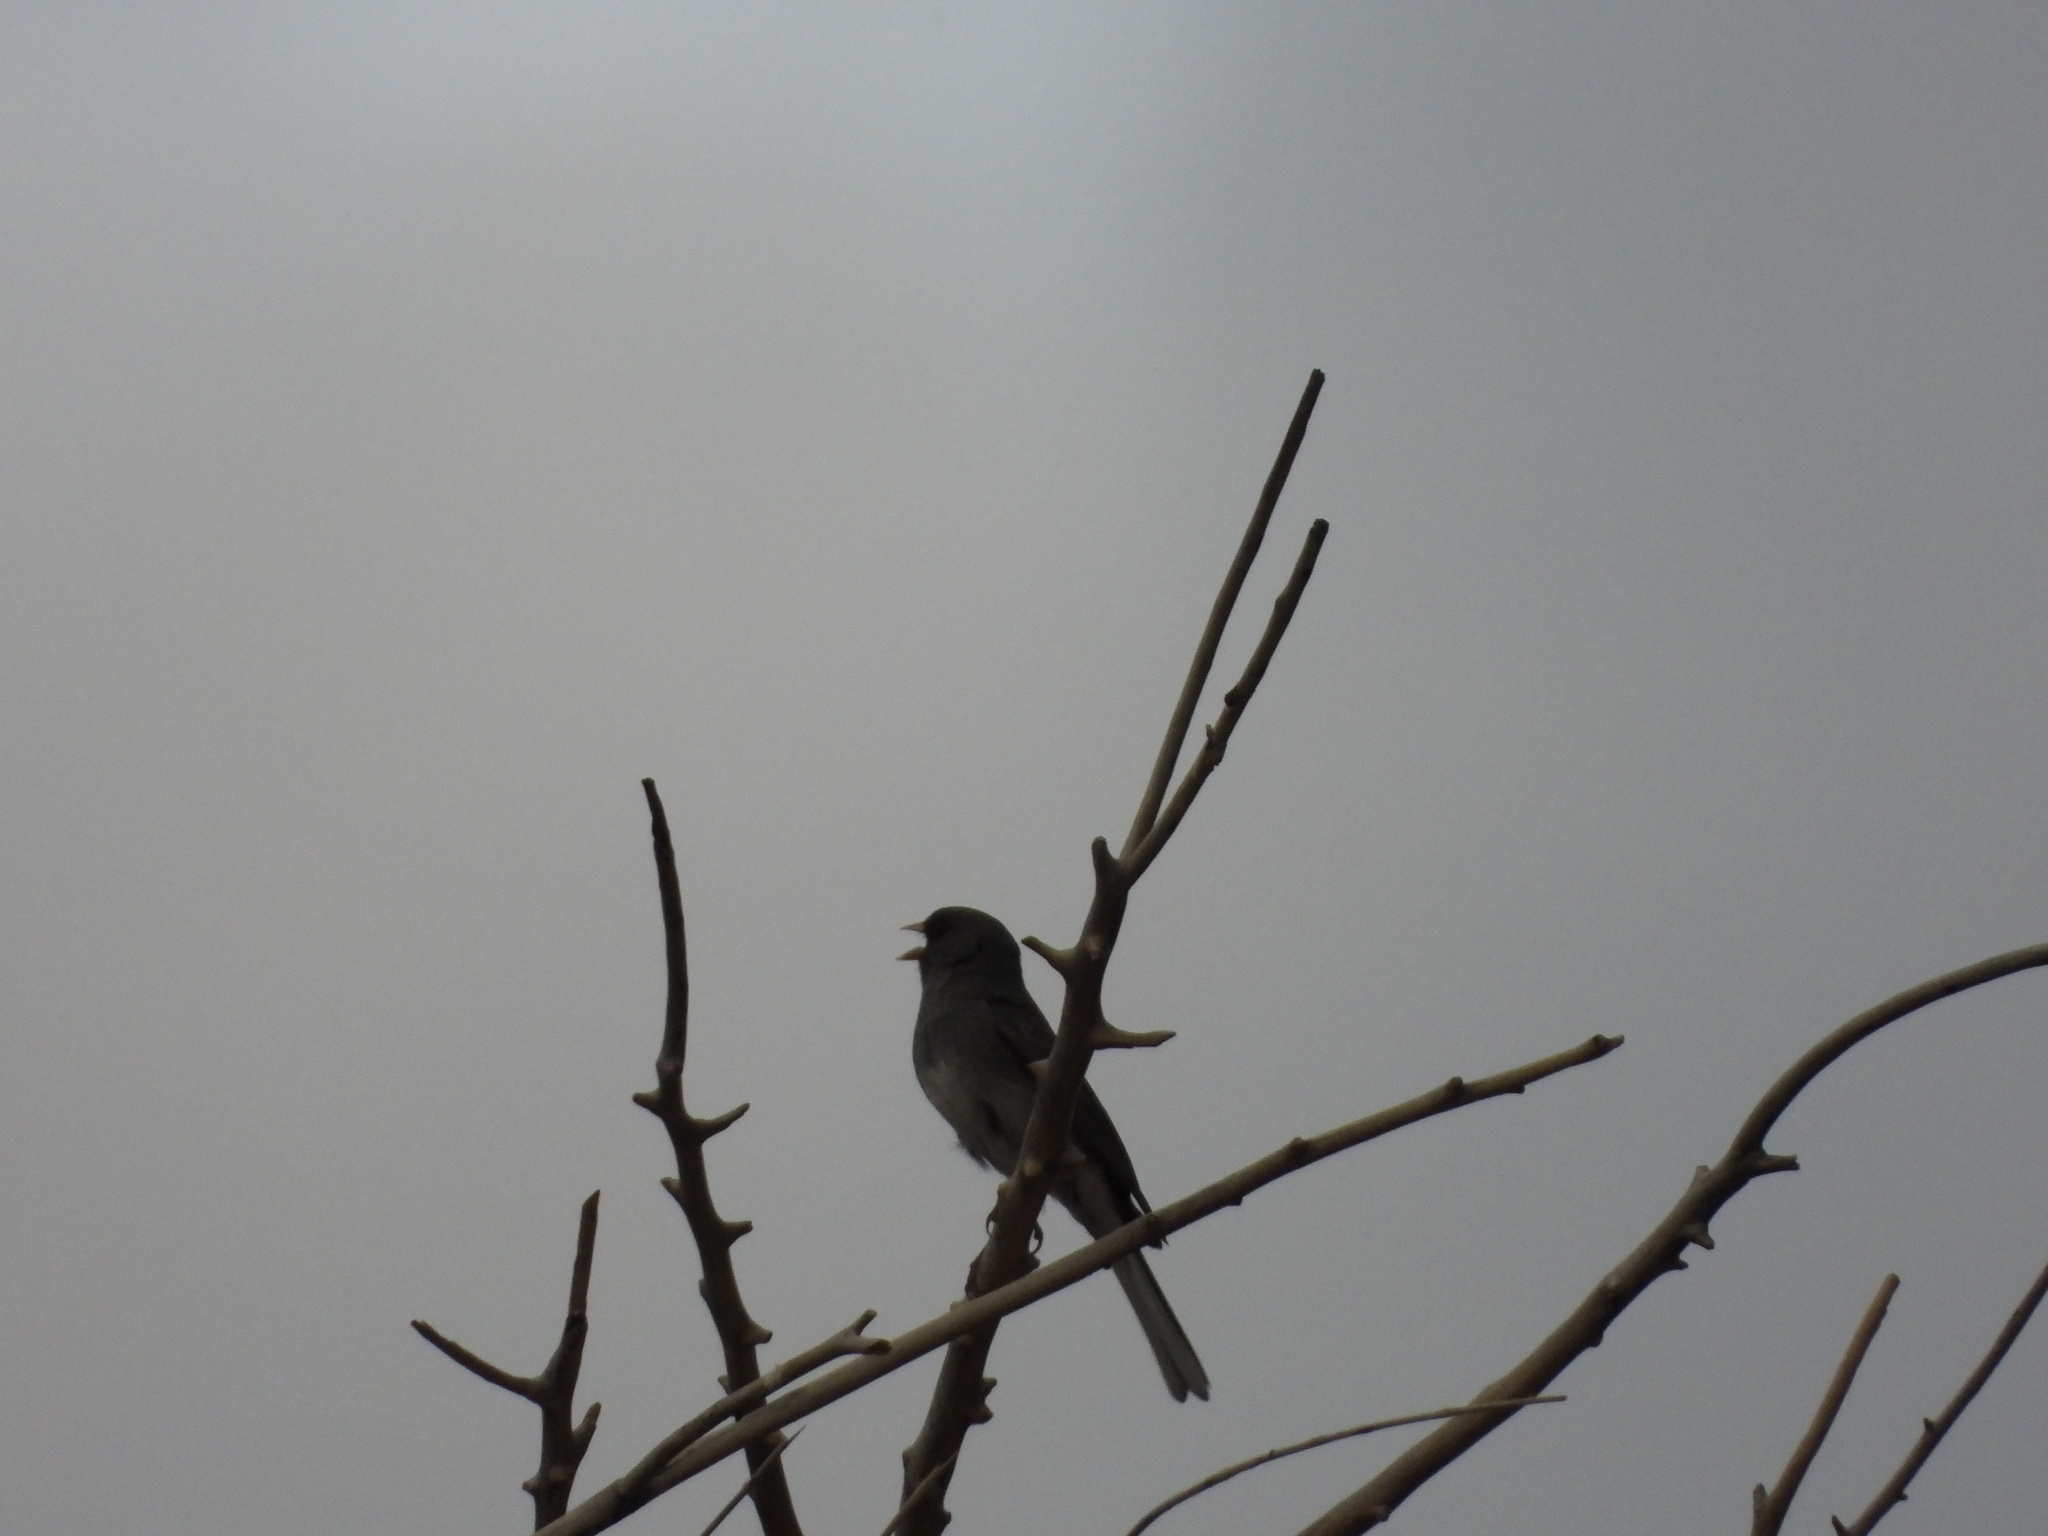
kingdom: Animalia
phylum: Chordata
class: Aves
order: Passeriformes
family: Passerellidae
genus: Junco
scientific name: Junco hyemalis
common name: Dark-eyed junco
